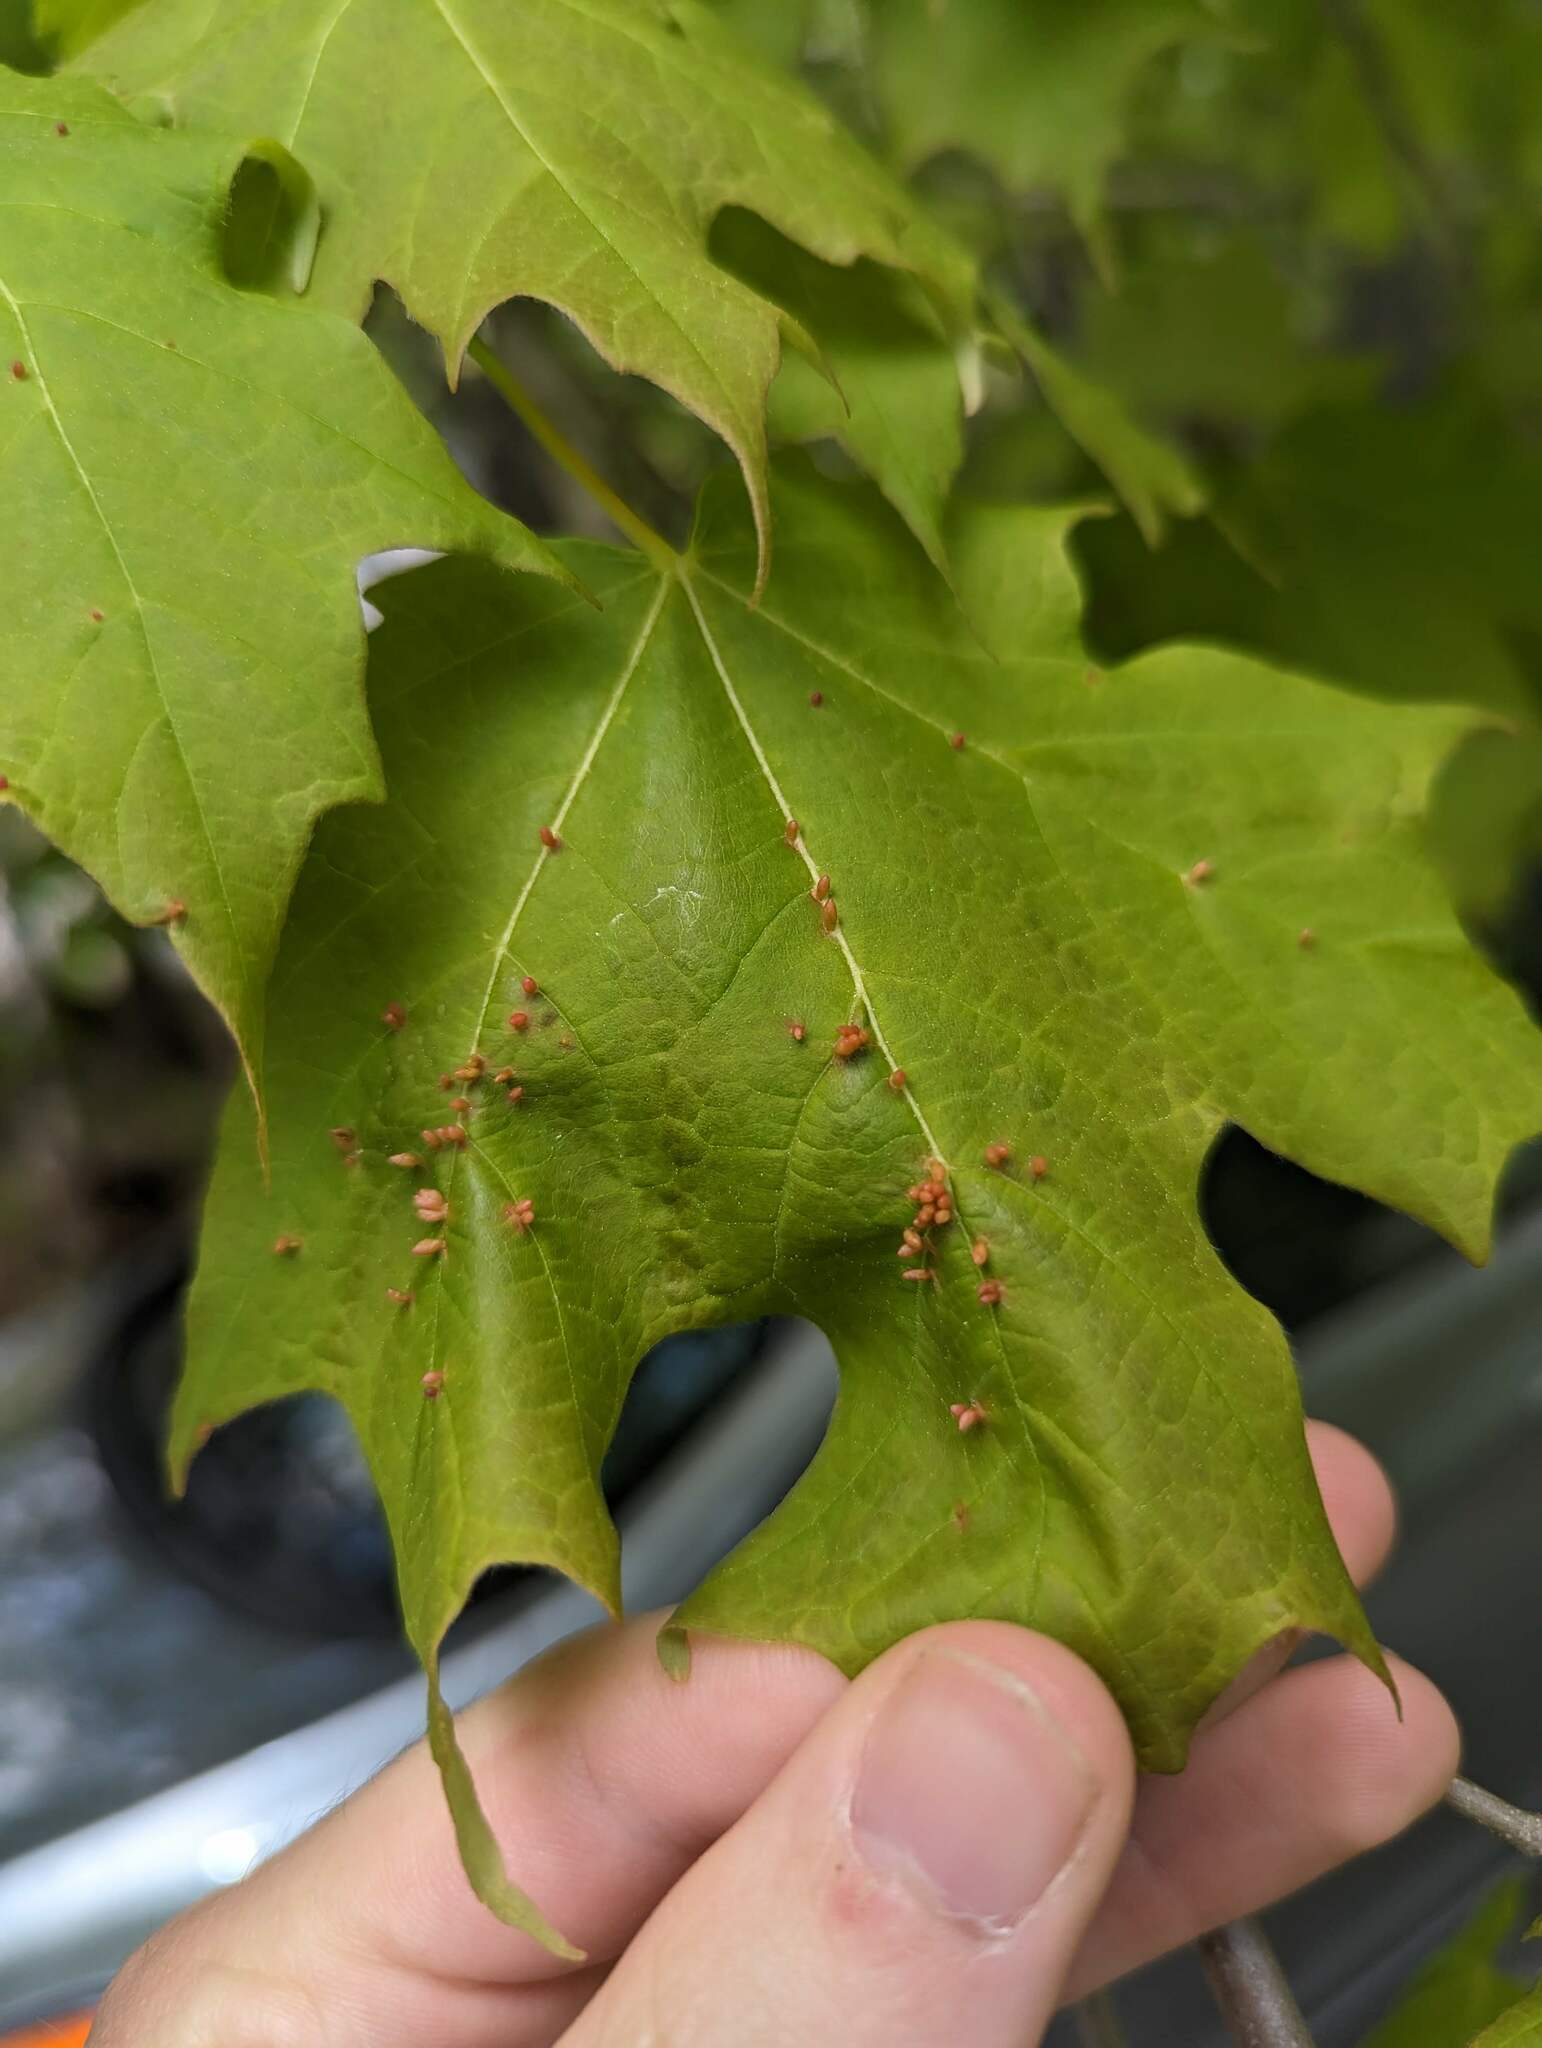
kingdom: Plantae
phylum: Tracheophyta
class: Magnoliopsida
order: Sapindales
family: Sapindaceae
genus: Acer
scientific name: Acer saccharum
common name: Sugar maple
